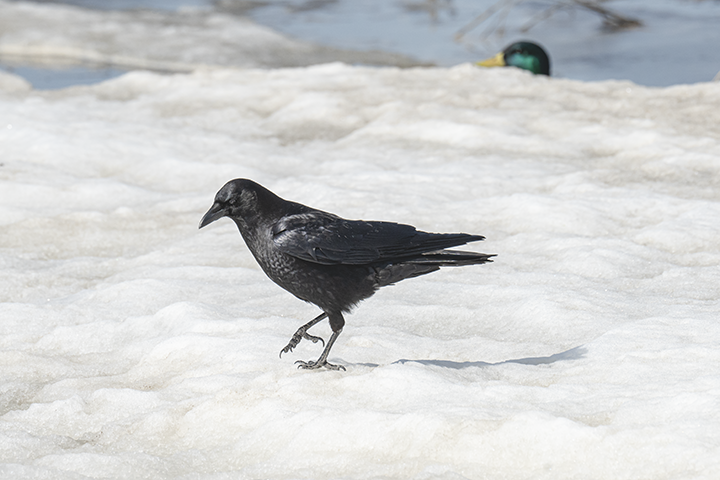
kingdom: Animalia
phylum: Chordata
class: Aves
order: Passeriformes
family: Corvidae
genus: Corvus
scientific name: Corvus brachyrhynchos
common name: American crow
